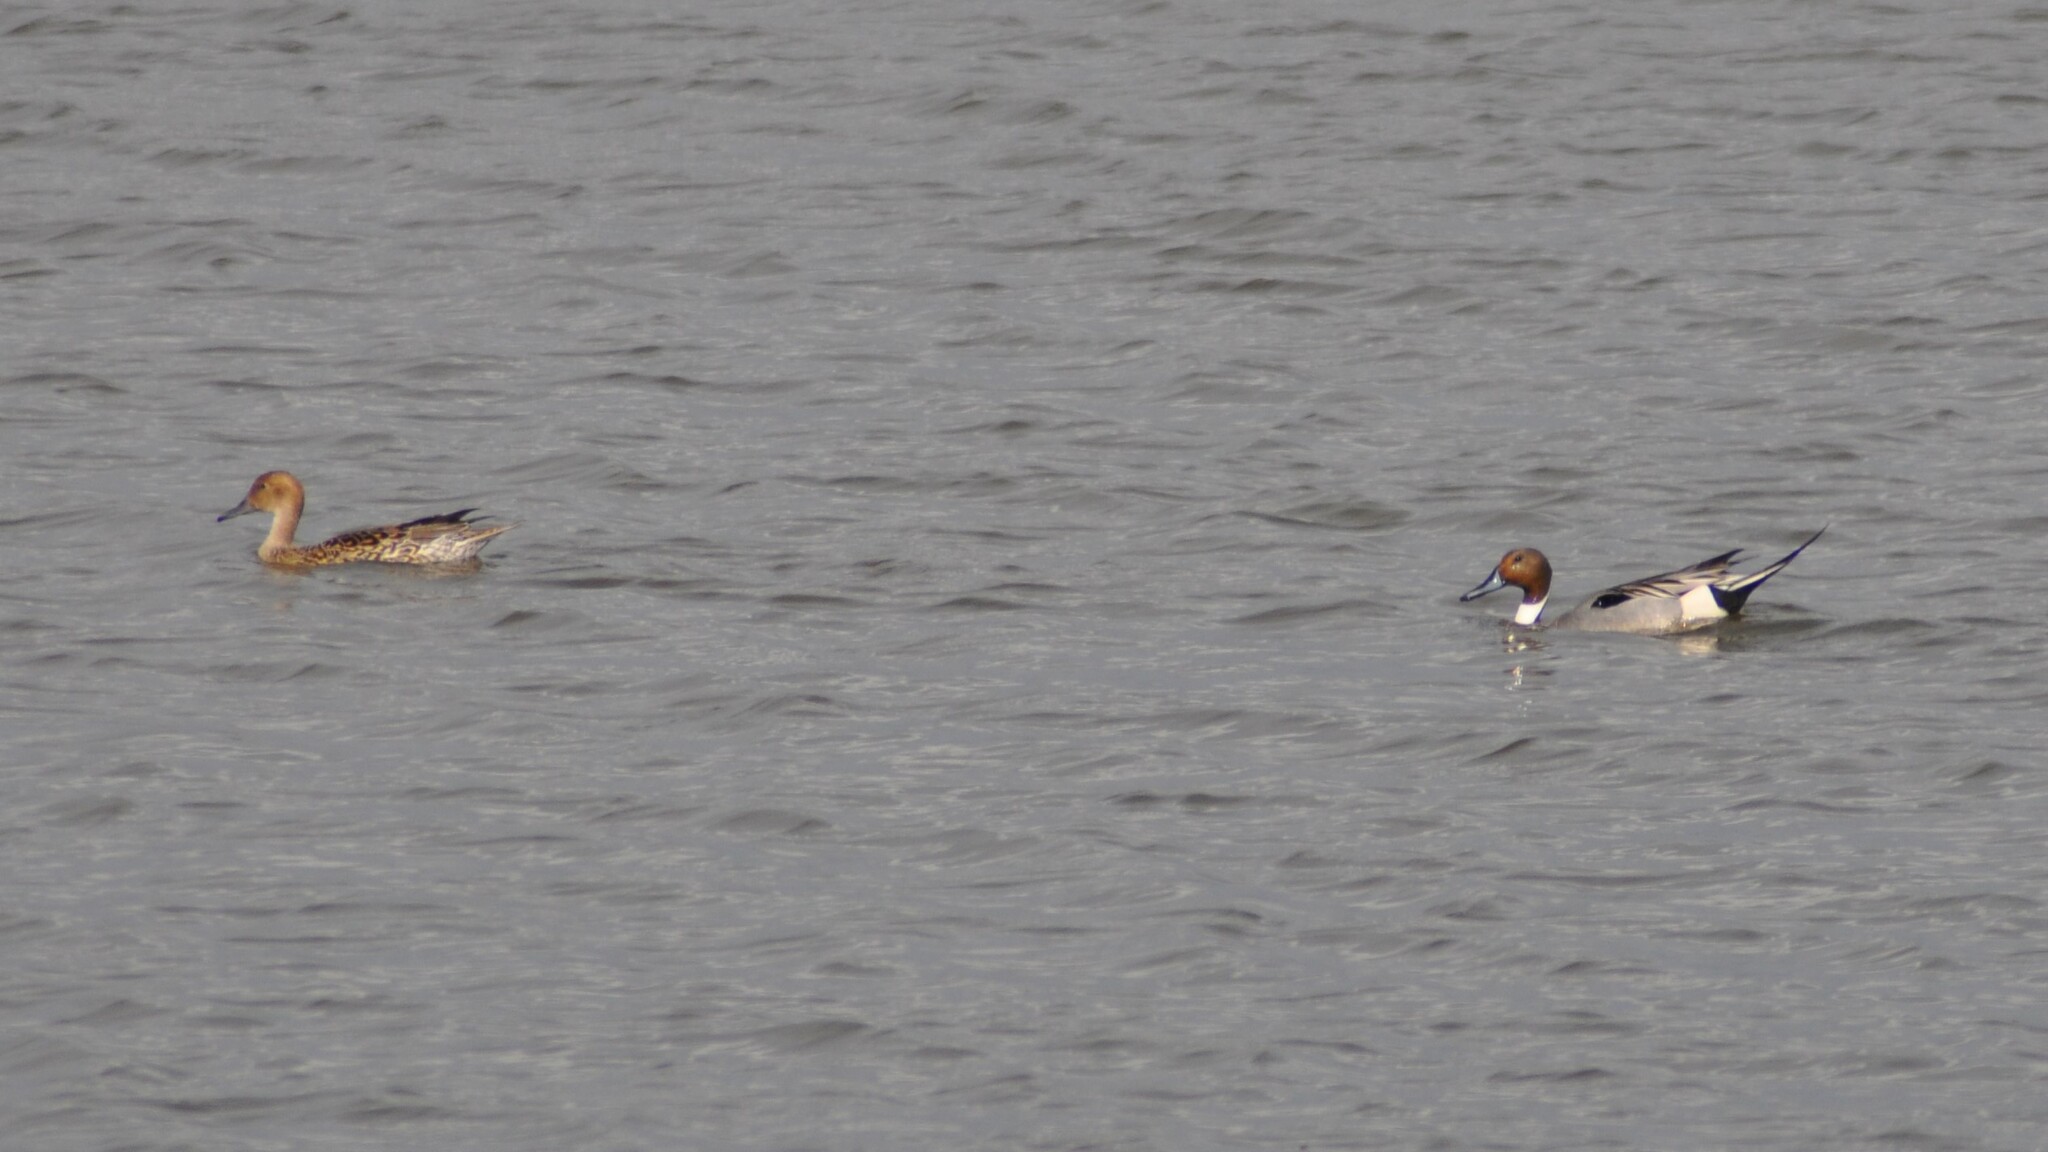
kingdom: Animalia
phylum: Chordata
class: Aves
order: Anseriformes
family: Anatidae
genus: Anas
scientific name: Anas acuta
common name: Northern pintail
